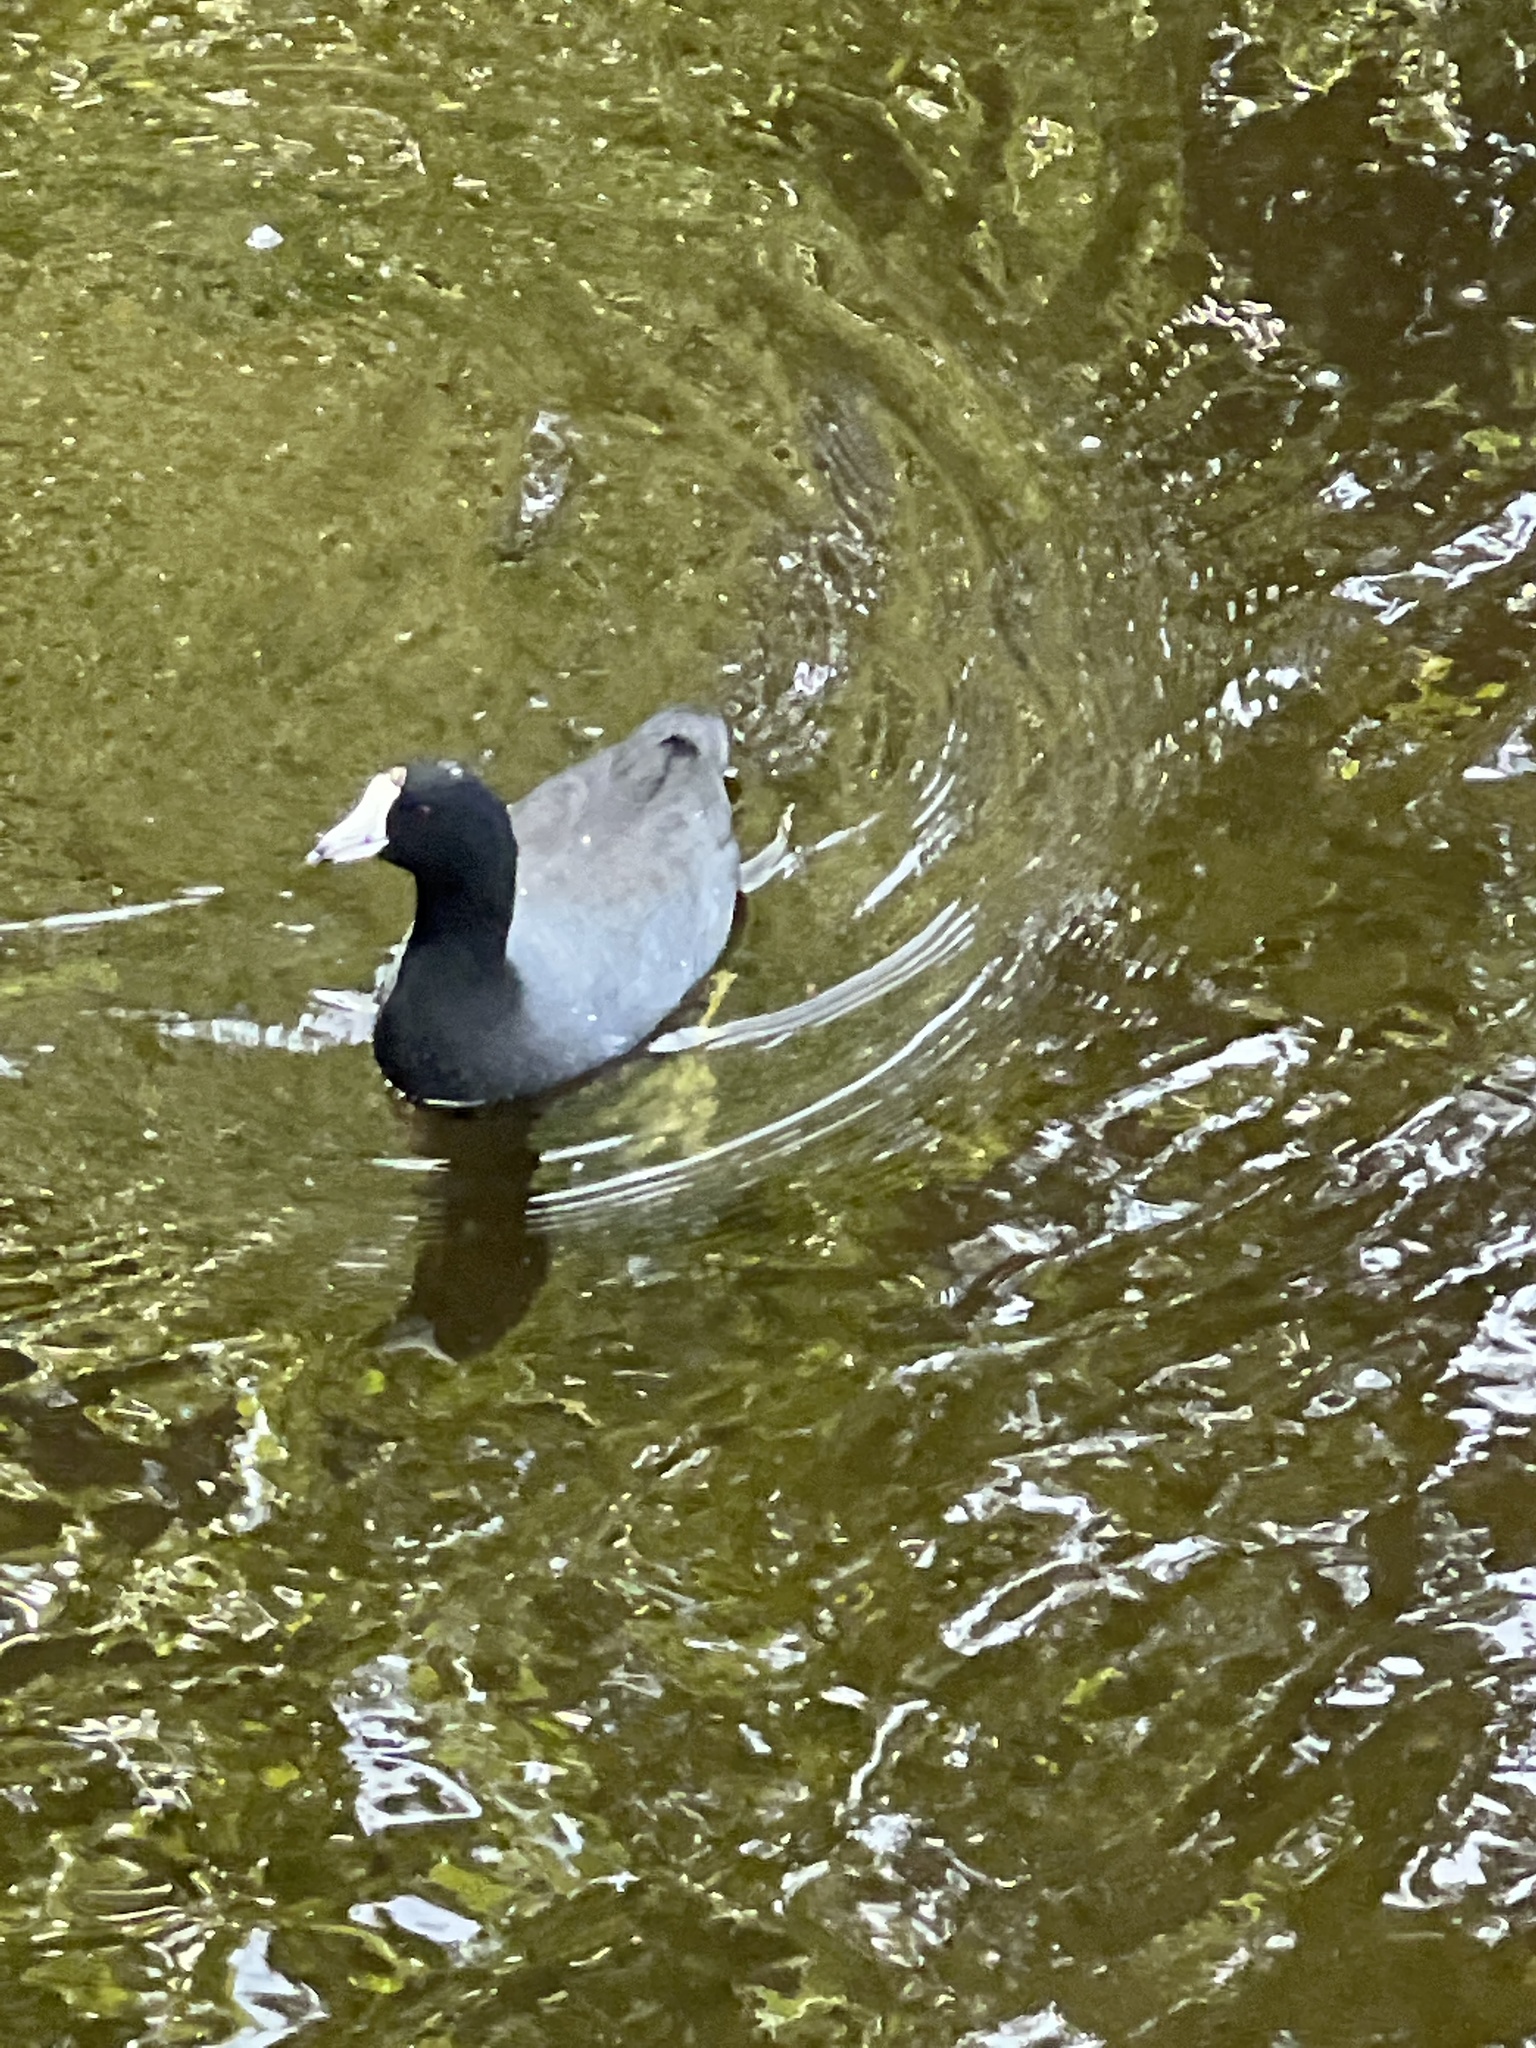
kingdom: Animalia
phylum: Chordata
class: Aves
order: Gruiformes
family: Rallidae
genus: Fulica
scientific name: Fulica americana
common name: American coot
